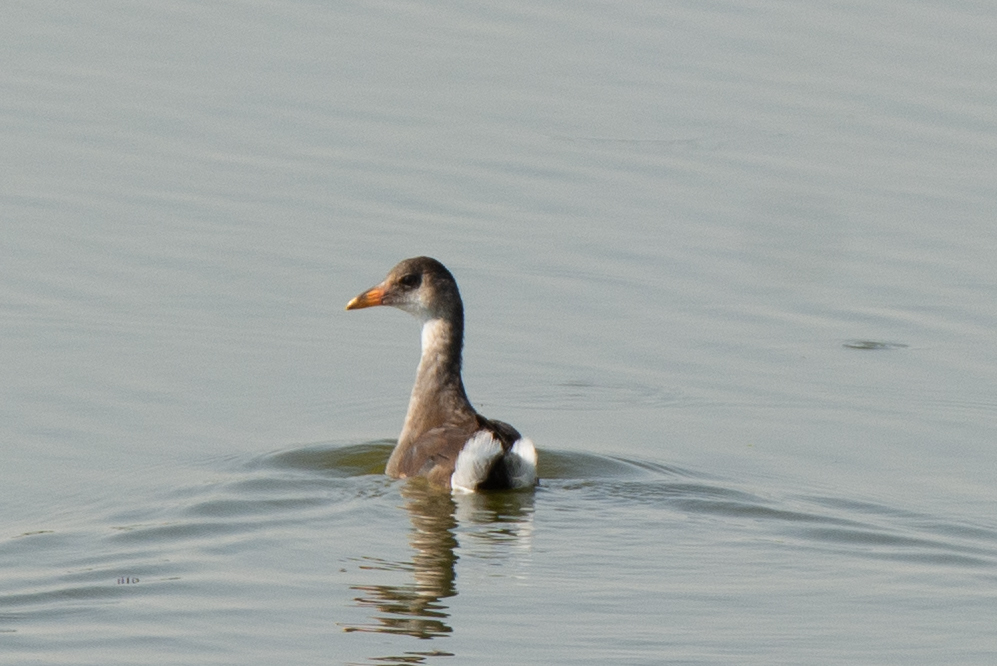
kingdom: Animalia
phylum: Chordata
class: Aves
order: Gruiformes
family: Rallidae
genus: Gallinula
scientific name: Gallinula chloropus
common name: Common moorhen
